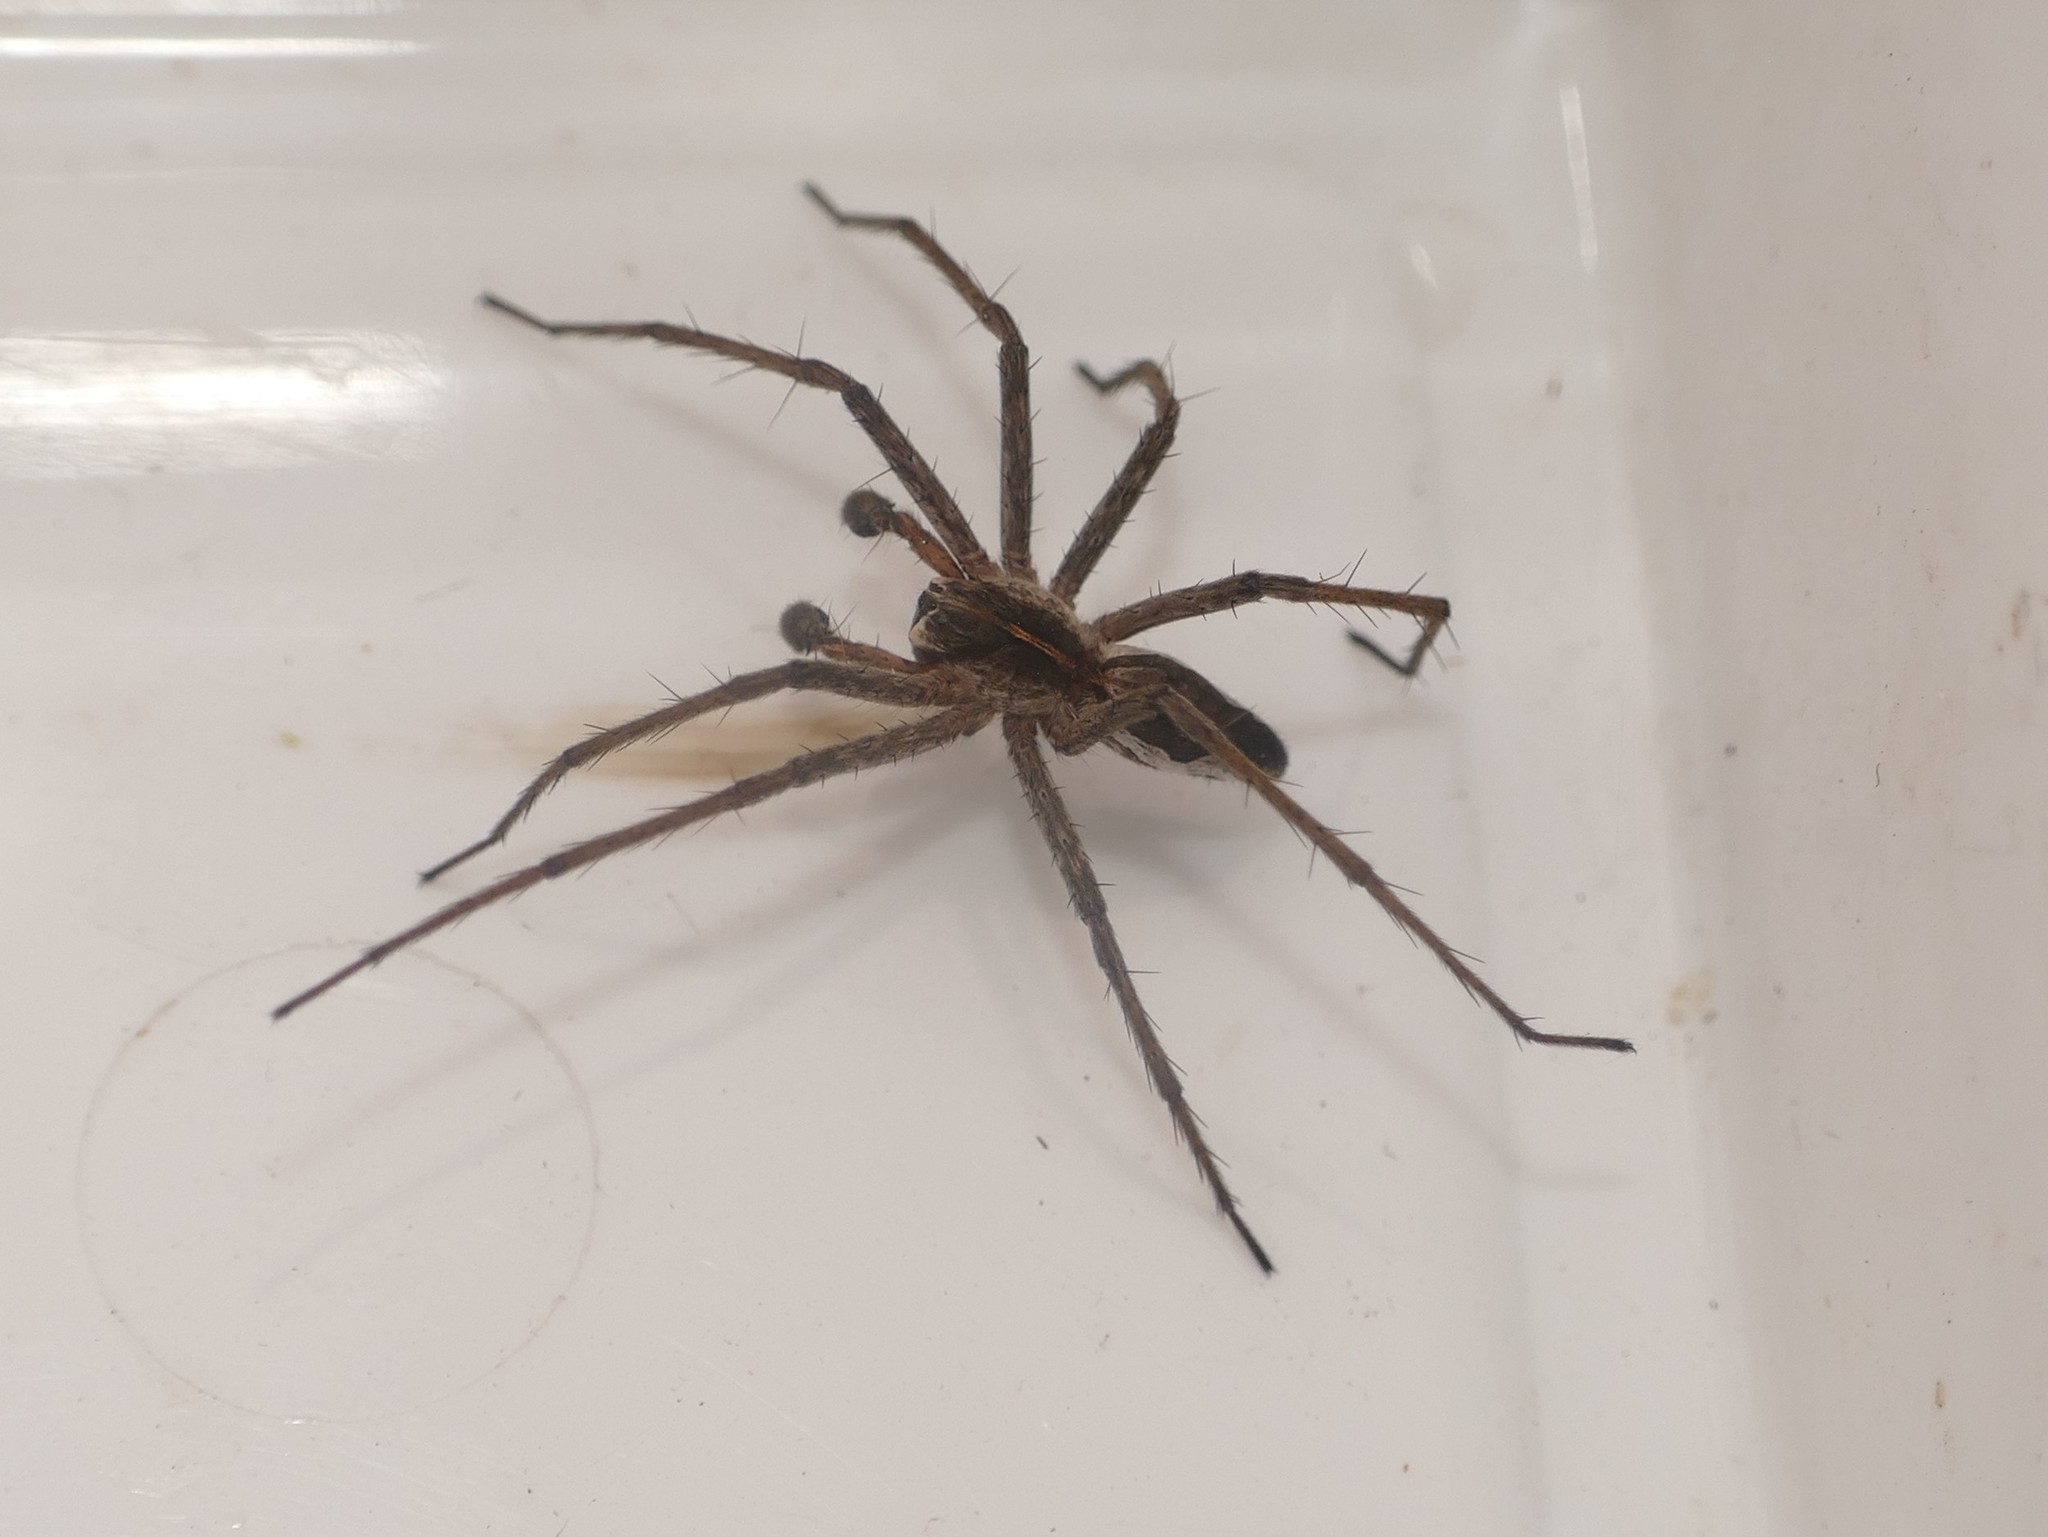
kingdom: Animalia
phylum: Arthropoda
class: Arachnida
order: Araneae
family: Pisauridae
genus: Pisaura
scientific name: Pisaura mirabilis
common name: Tent spider
